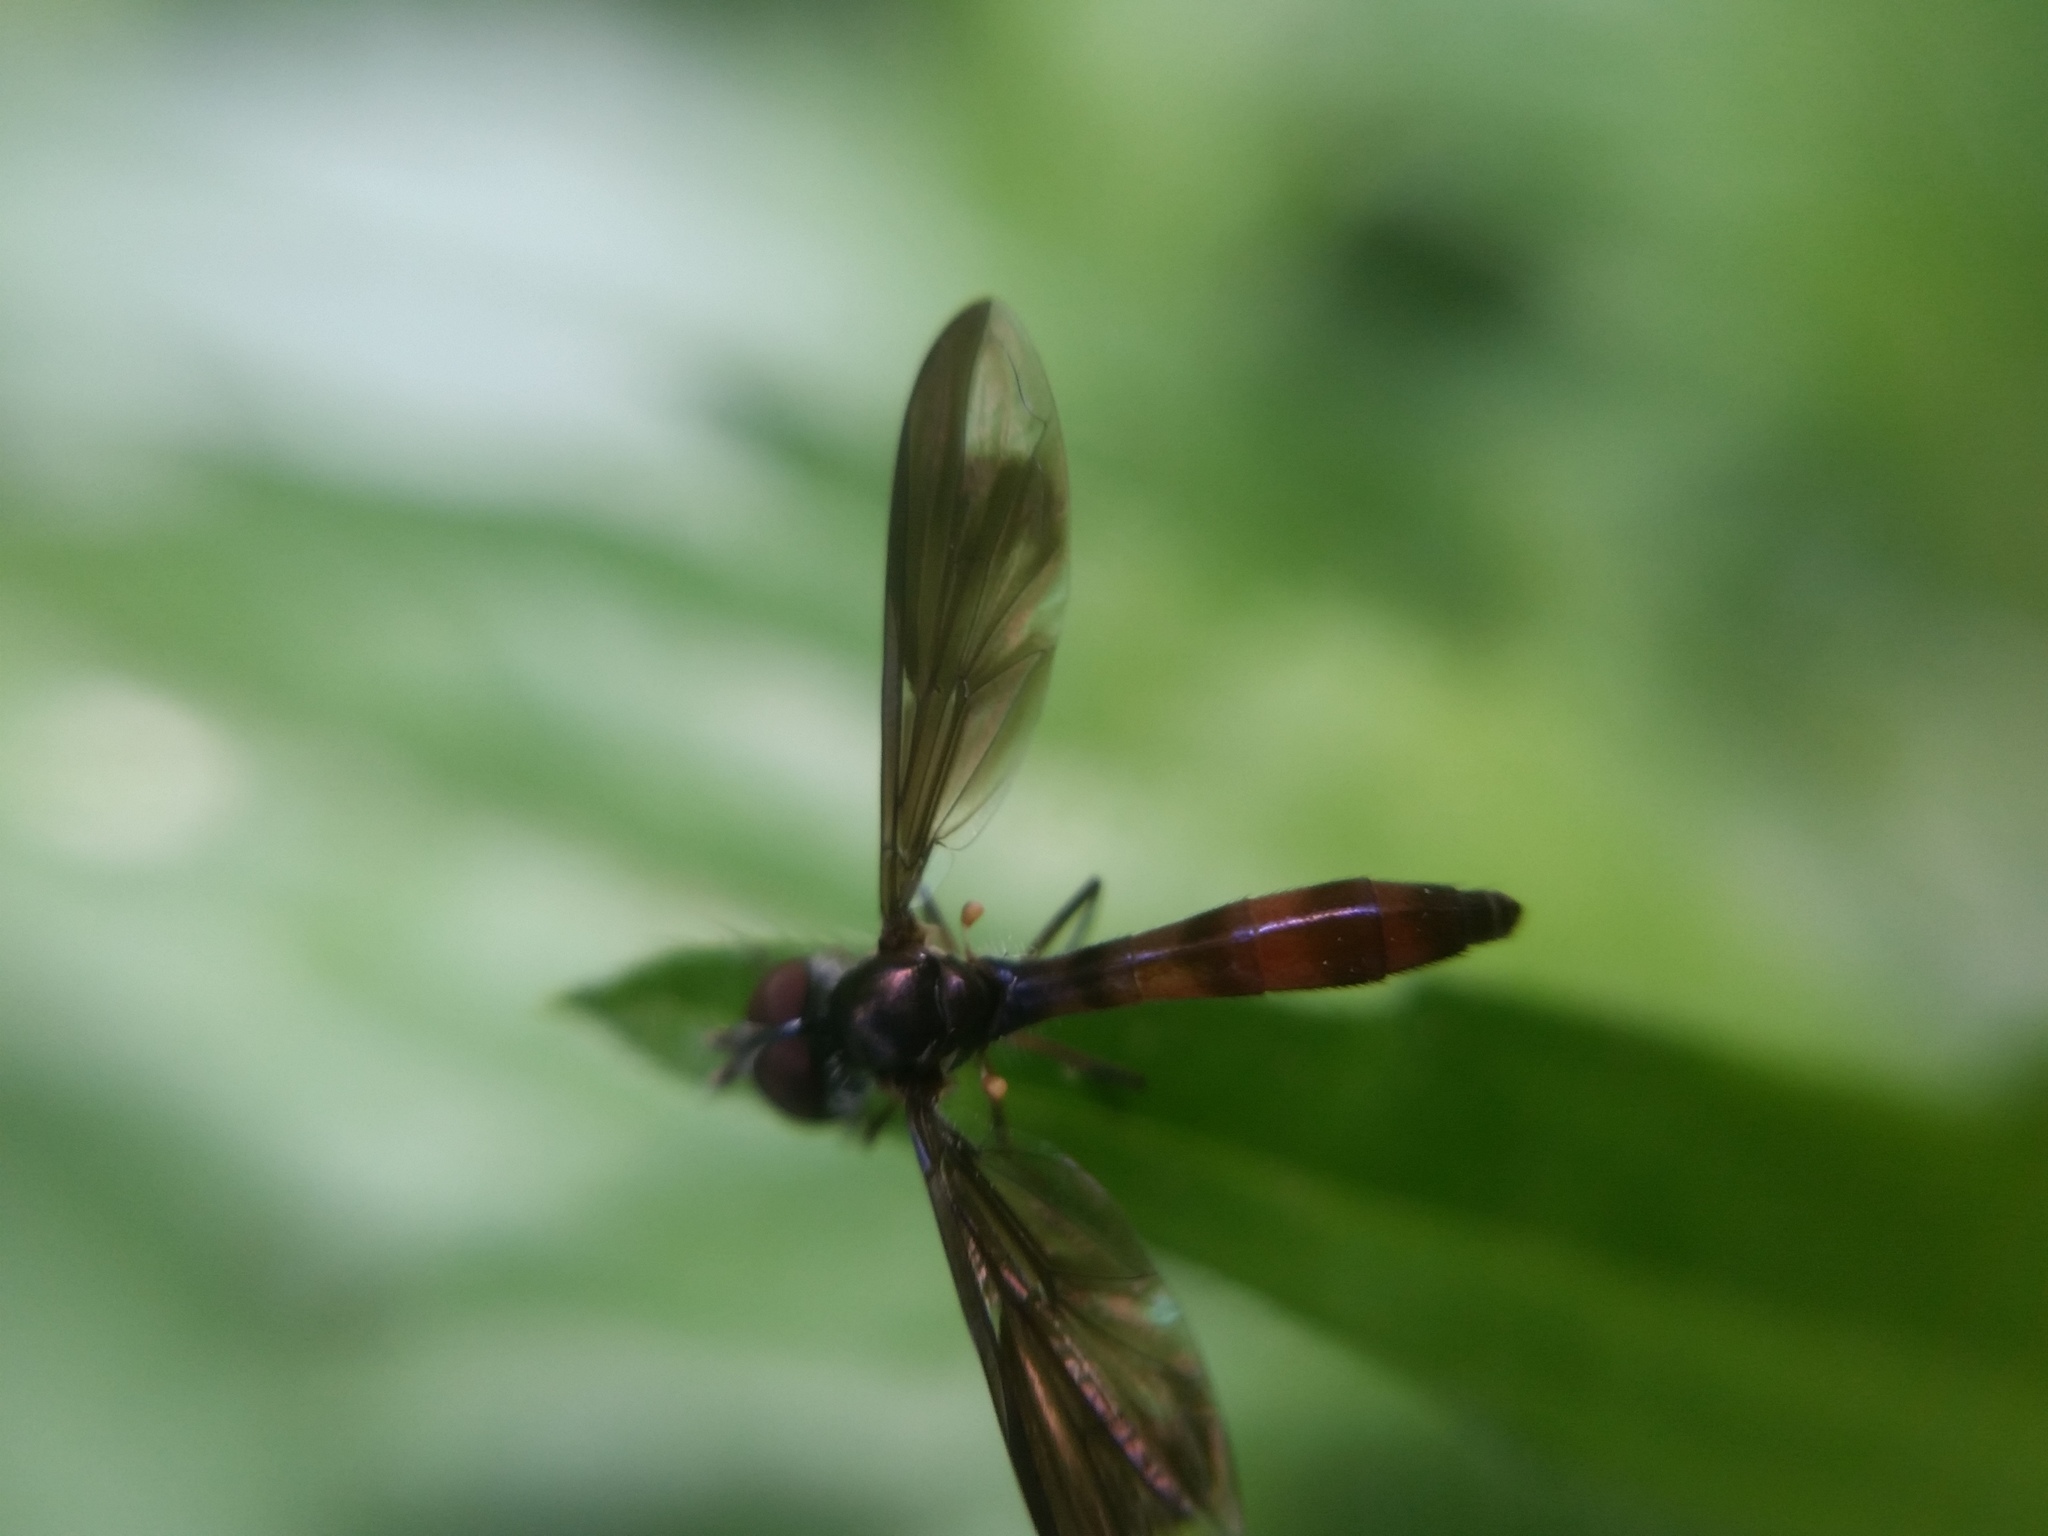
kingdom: Animalia
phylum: Arthropoda
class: Insecta
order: Diptera
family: Syrphidae
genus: Ocyptamus
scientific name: Ocyptamus fuscipennis
